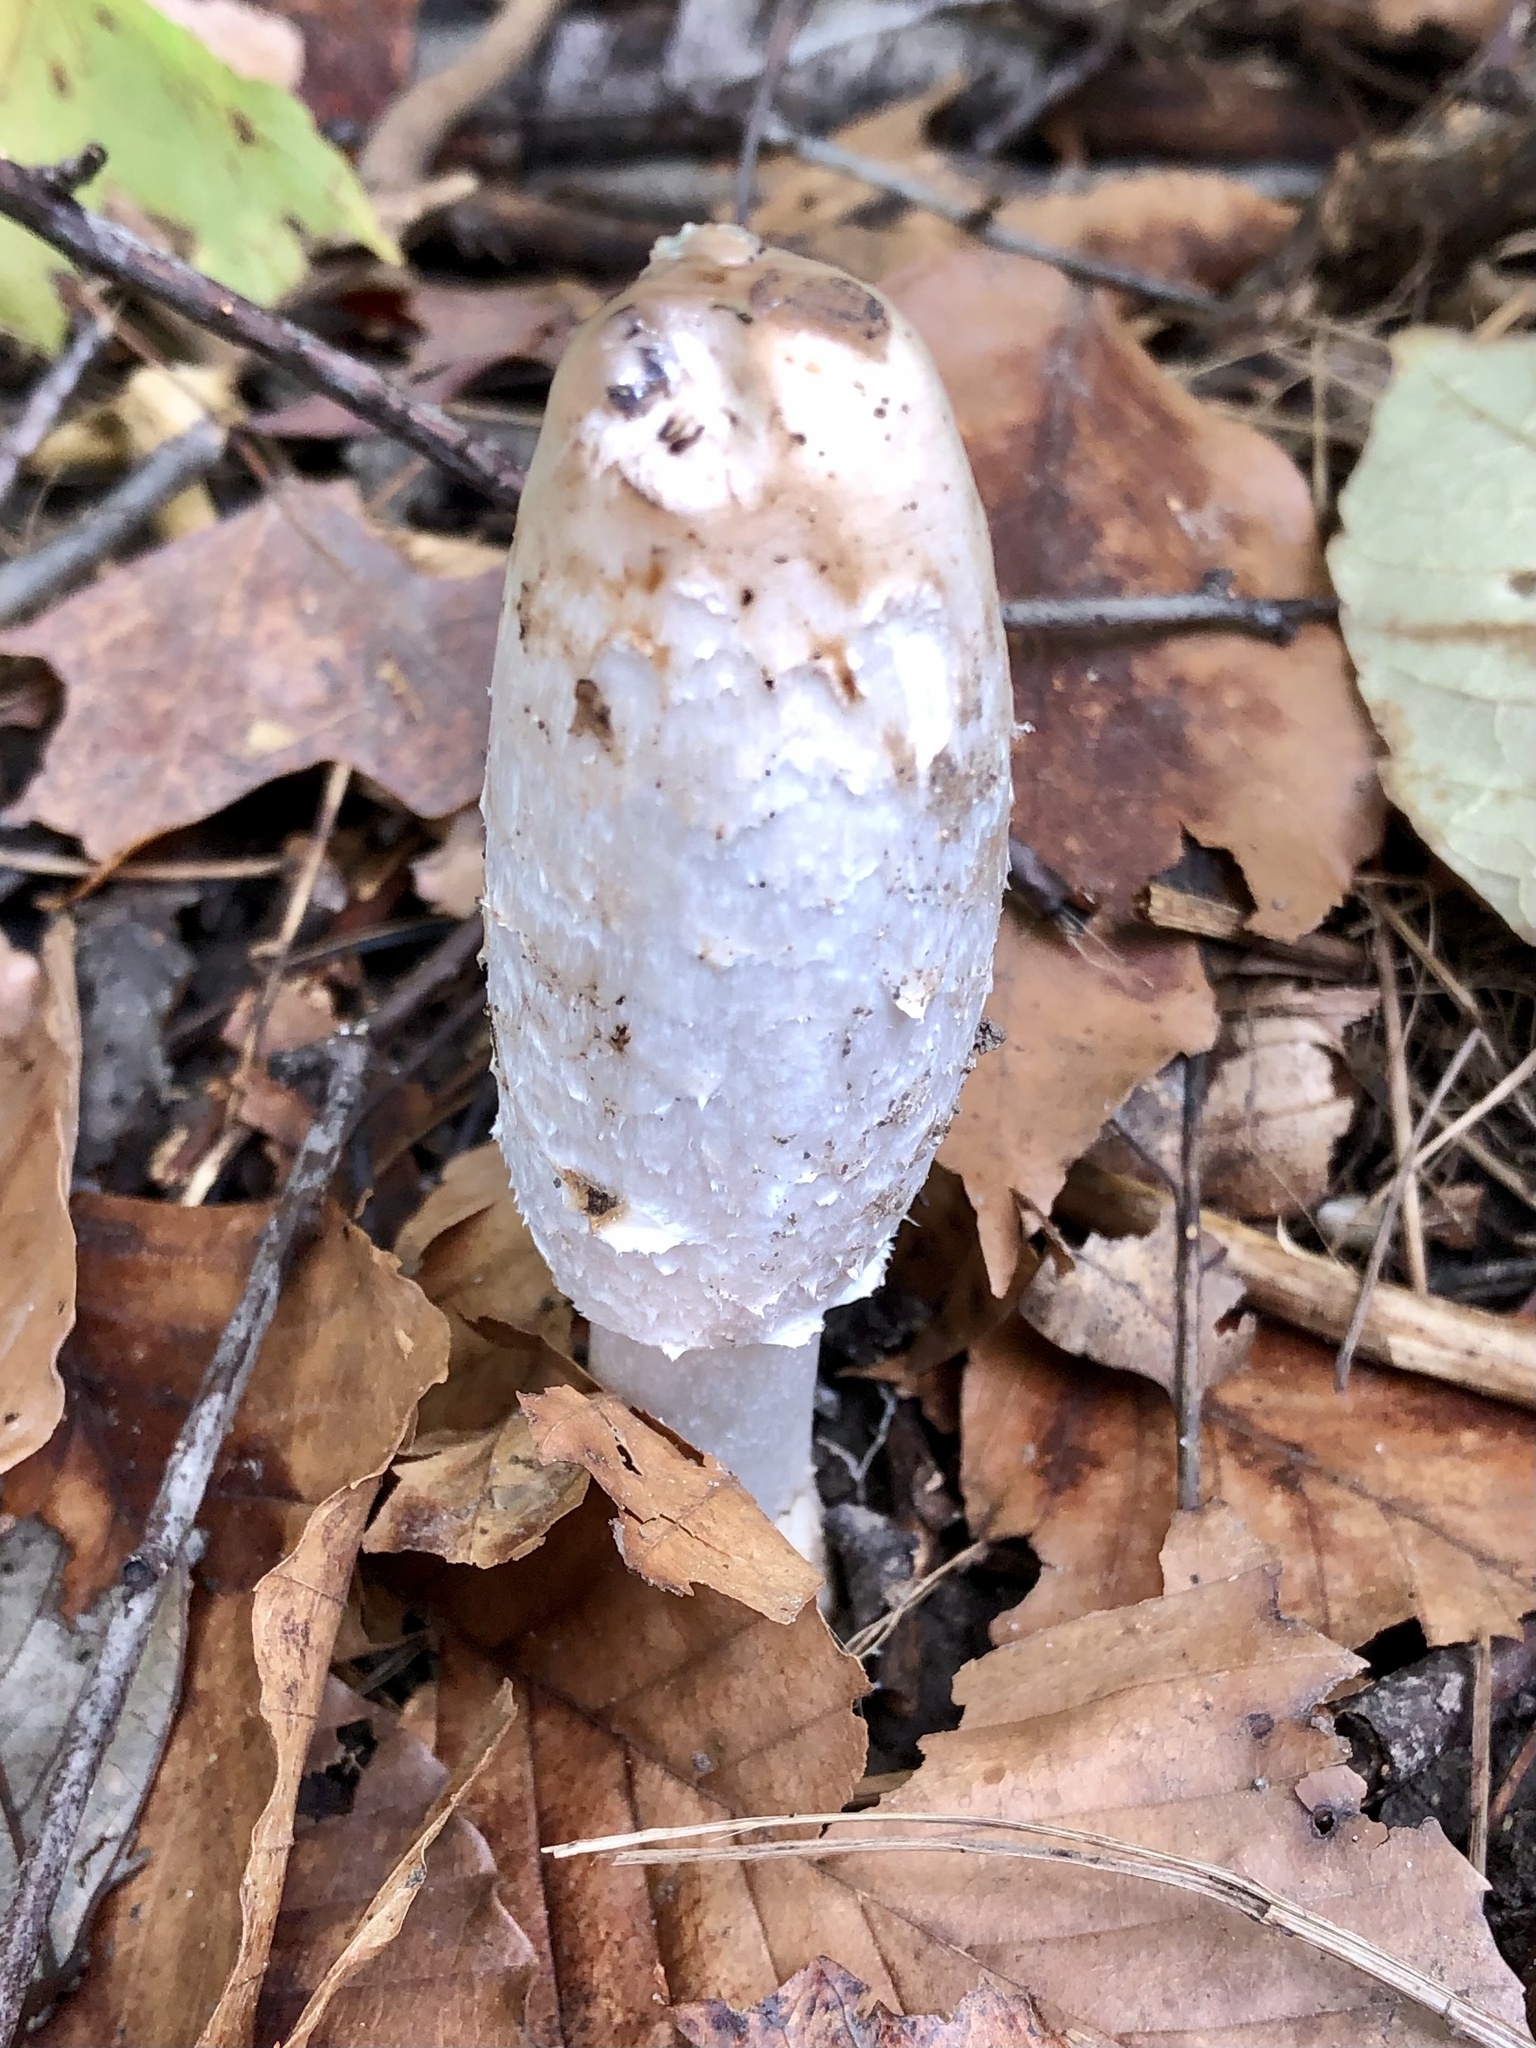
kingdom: Fungi
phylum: Basidiomycota
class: Agaricomycetes
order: Agaricales
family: Agaricaceae
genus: Coprinus
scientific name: Coprinus comatus
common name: Lawyer's wig
